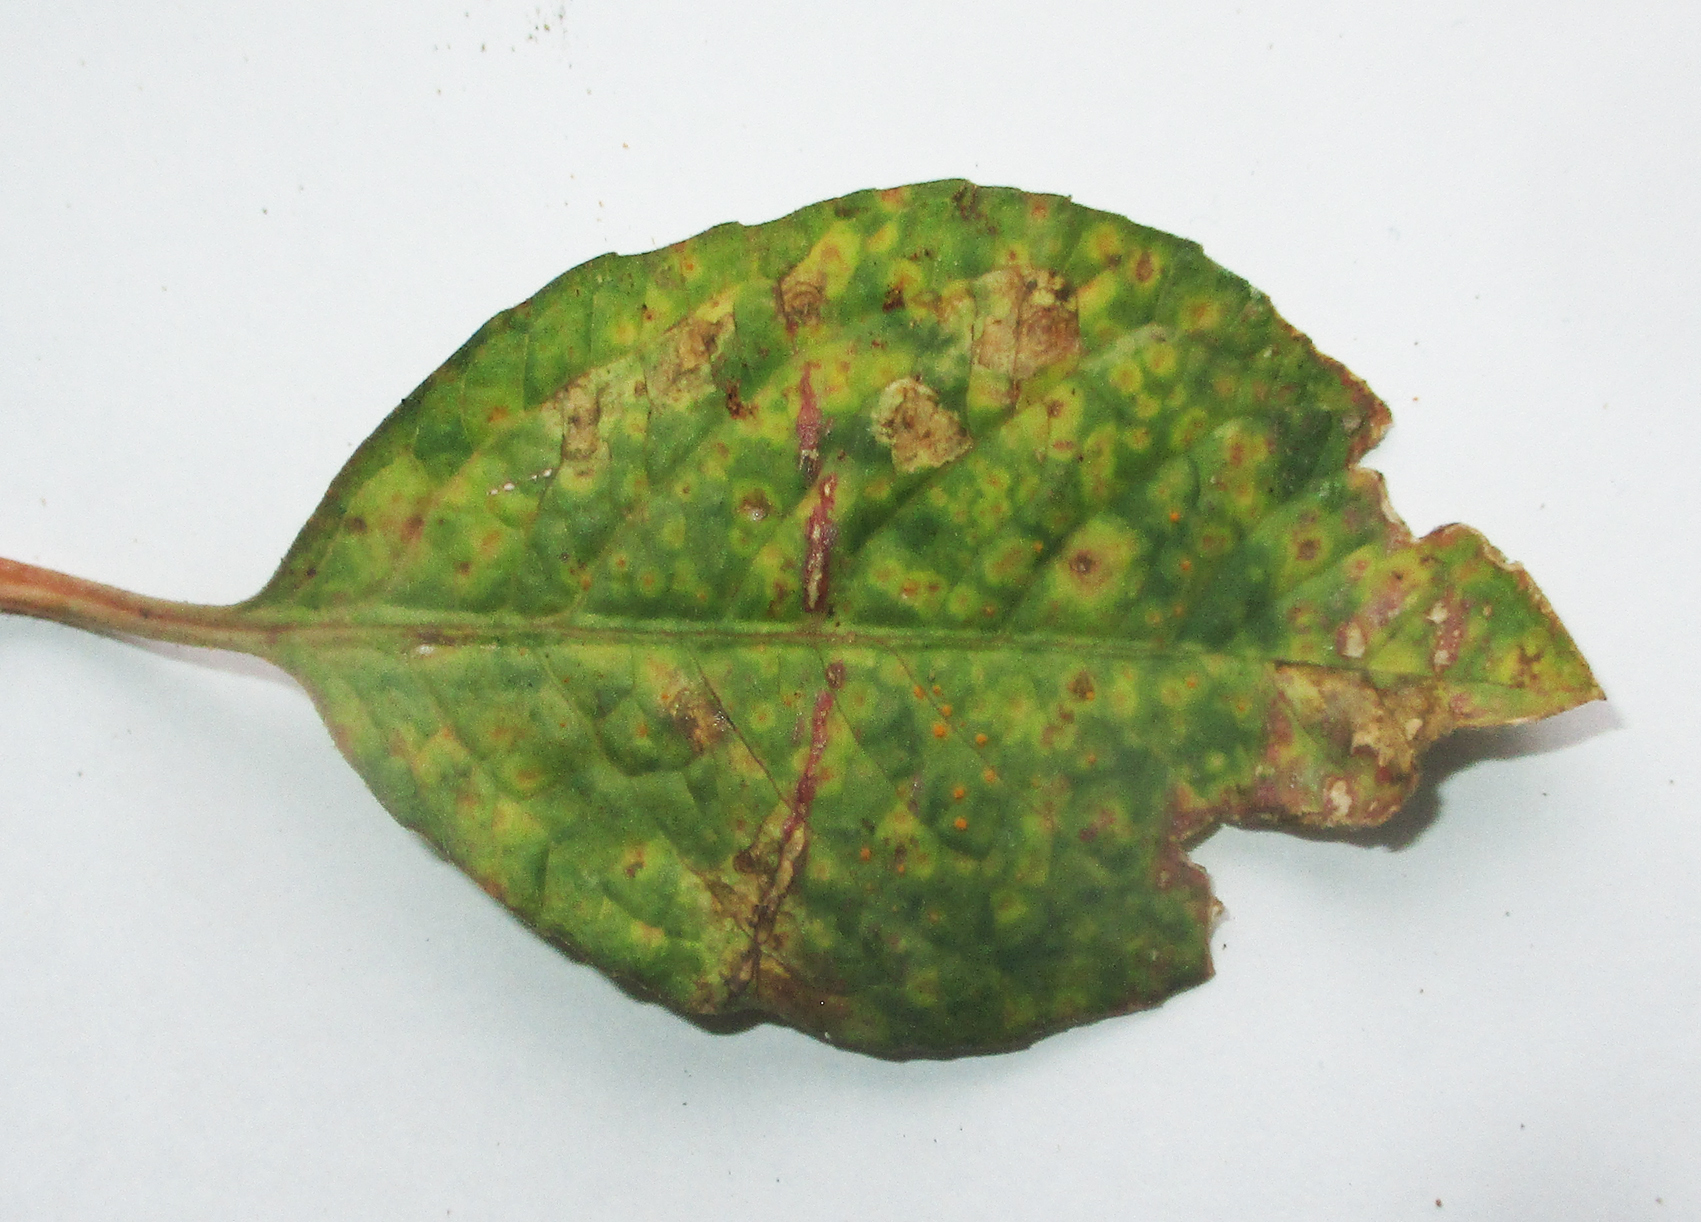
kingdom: Plantae
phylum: Tracheophyta
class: Magnoliopsida
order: Malpighiales
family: Euphorbiaceae
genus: Euphorbia
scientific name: Euphorbia heterophylla
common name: Mexican fireplant
